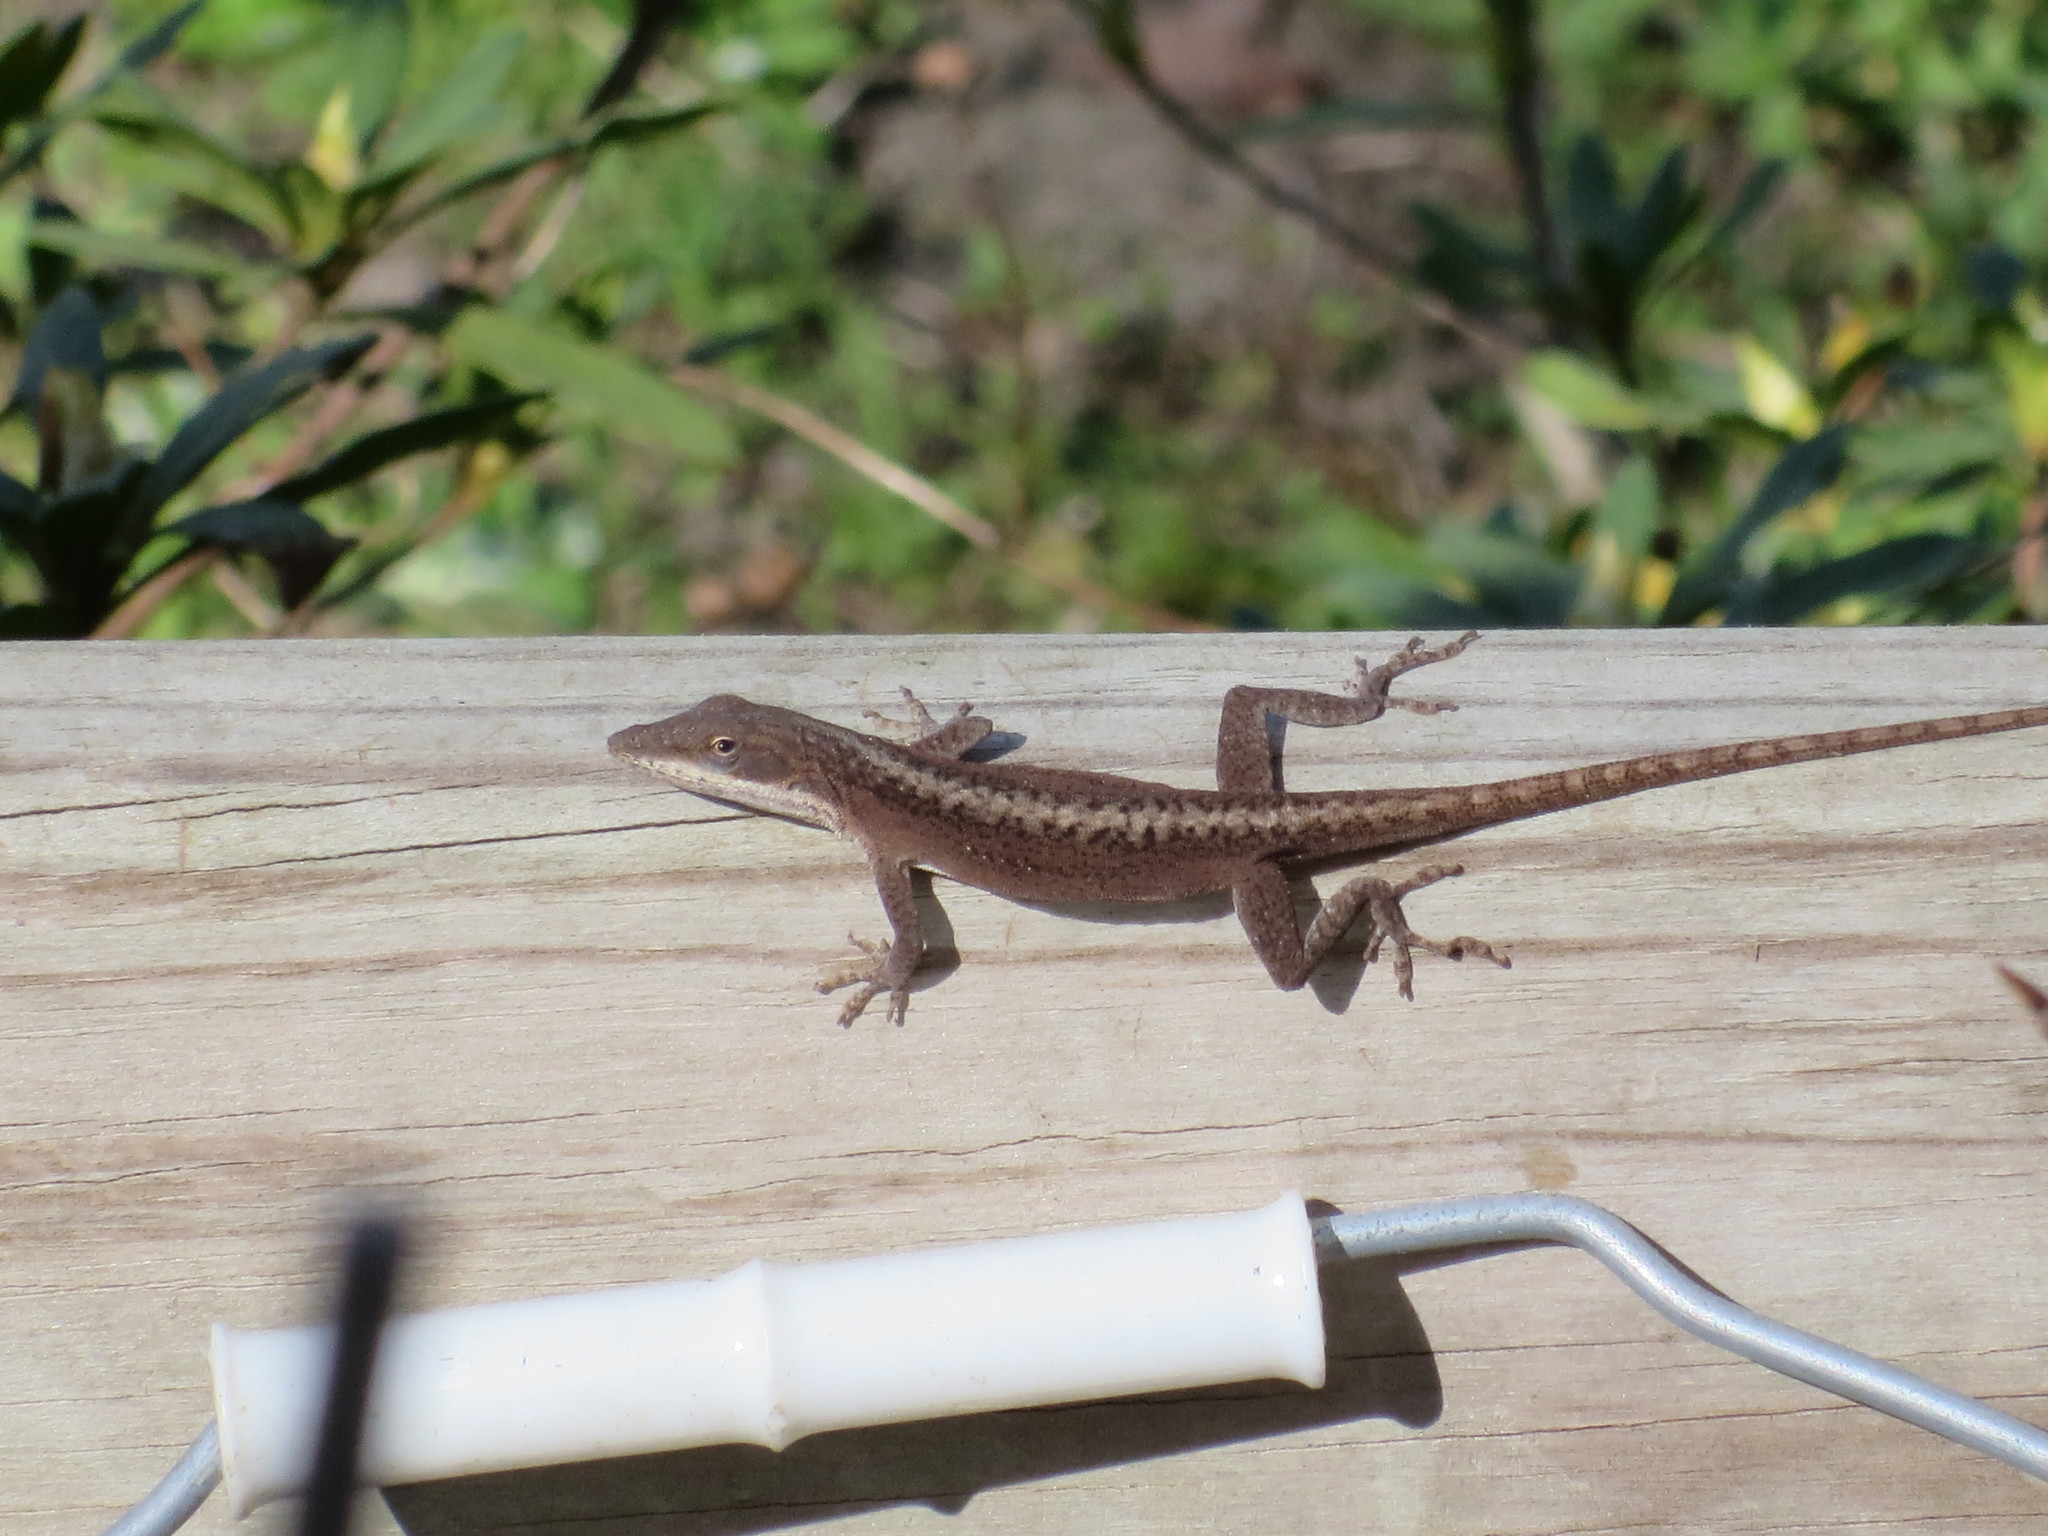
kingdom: Animalia
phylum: Chordata
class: Squamata
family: Dactyloidae
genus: Anolis
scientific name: Anolis carolinensis
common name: Green anole
